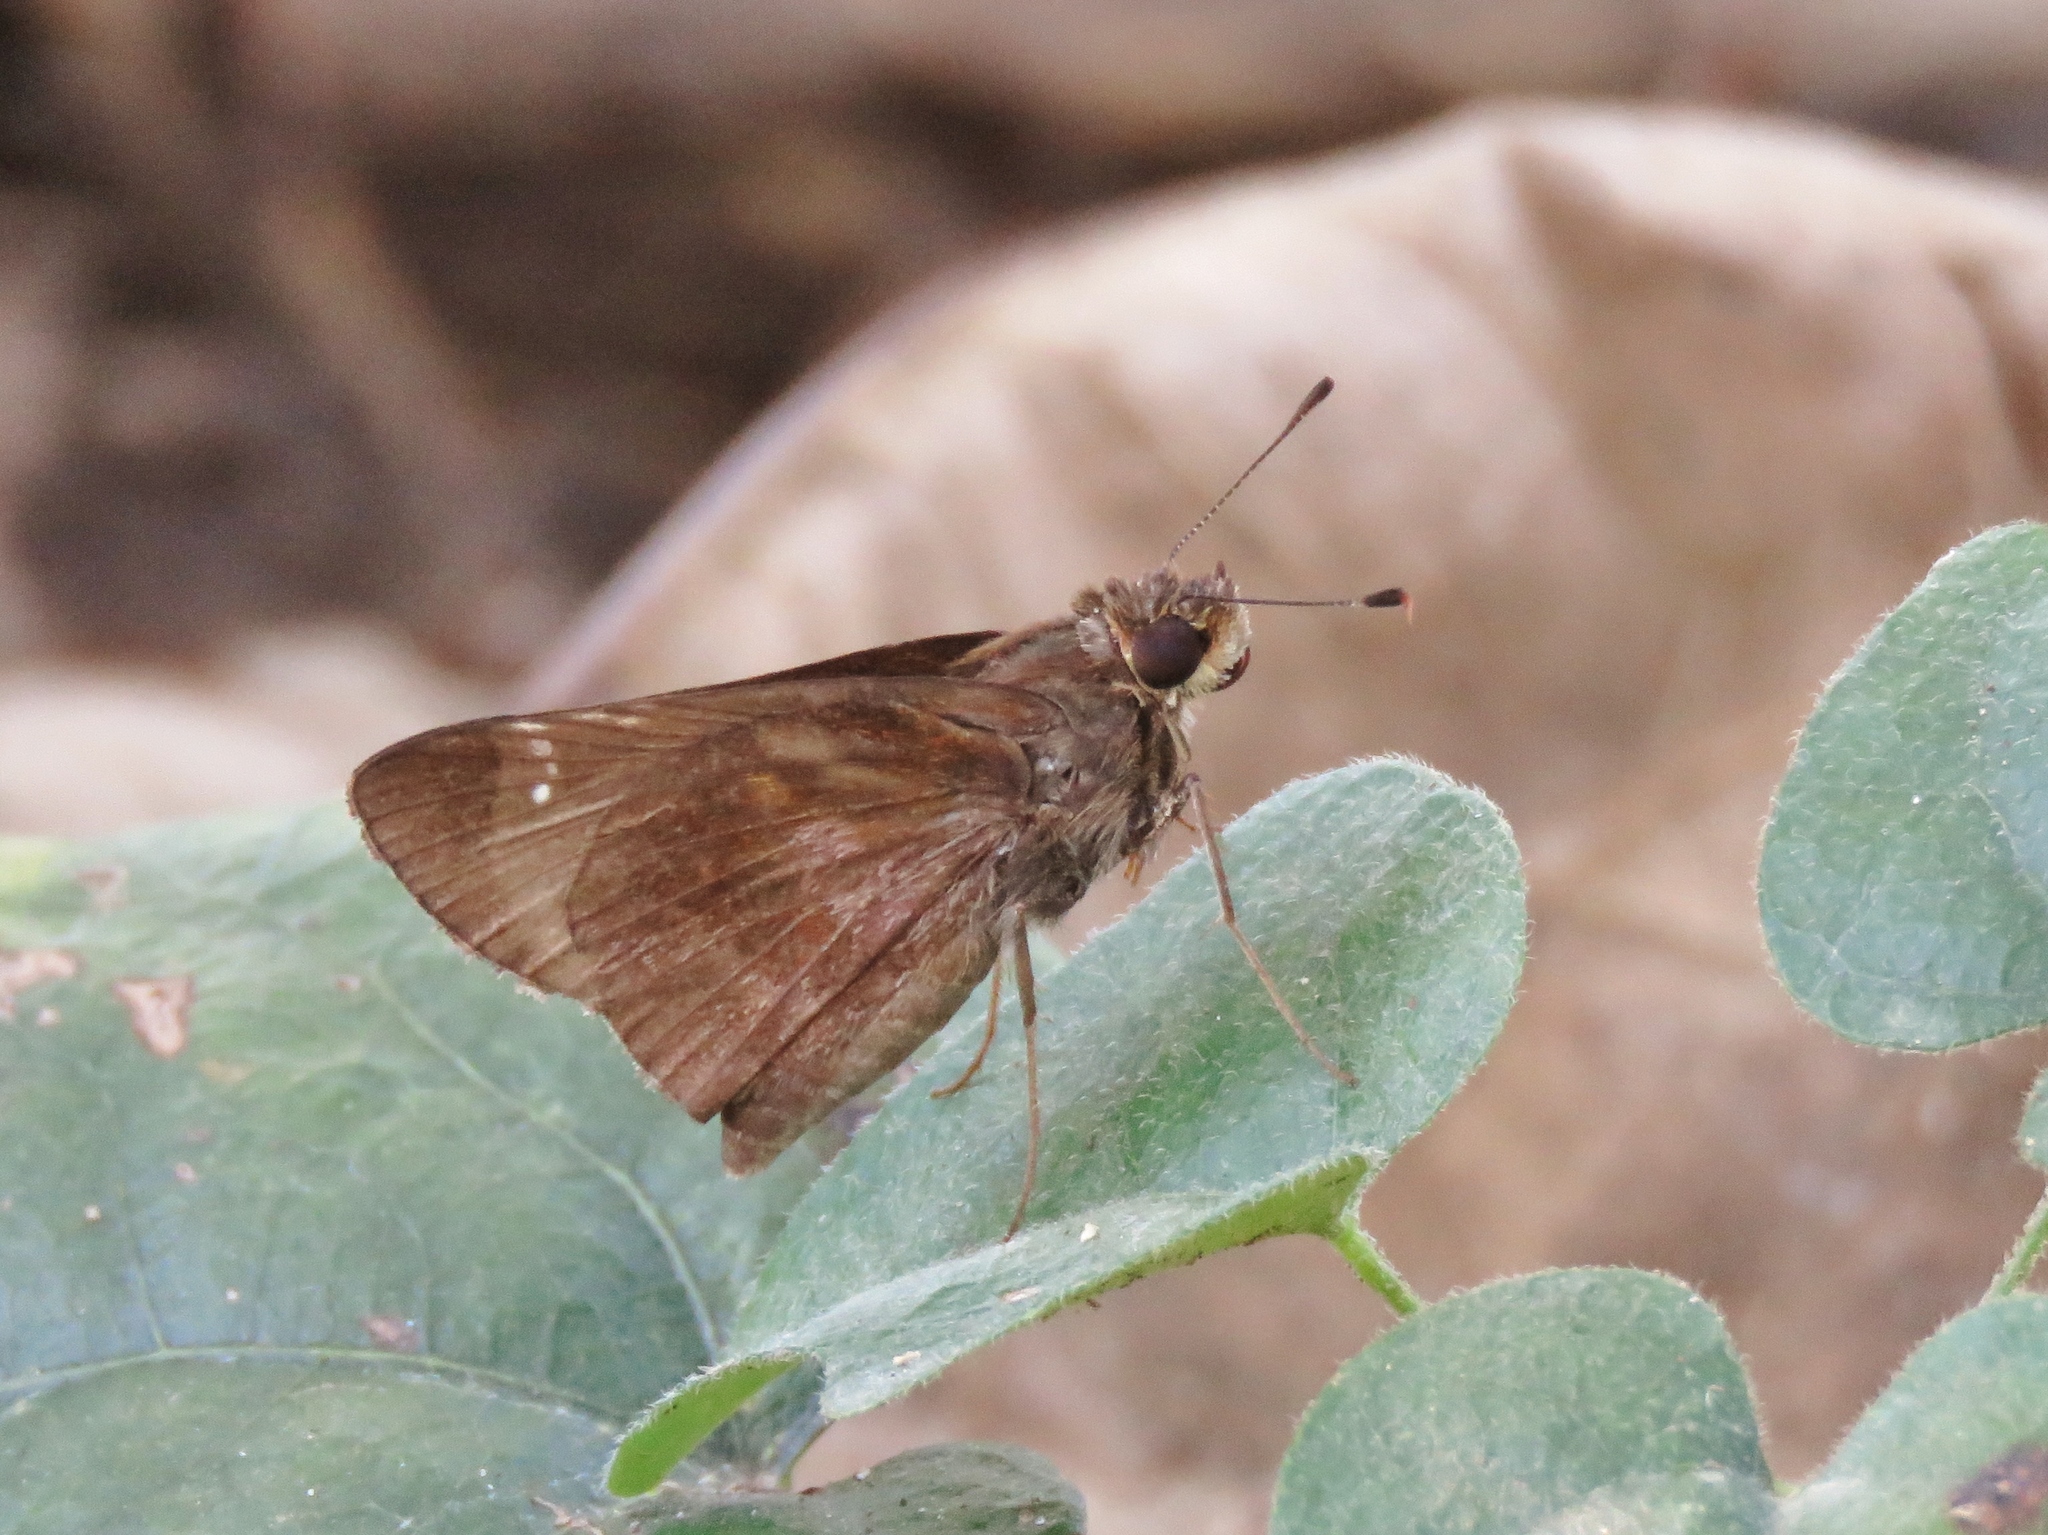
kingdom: Animalia
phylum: Arthropoda
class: Insecta
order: Lepidoptera
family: Hesperiidae
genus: Lerema
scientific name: Lerema accius
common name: Clouded skipper
